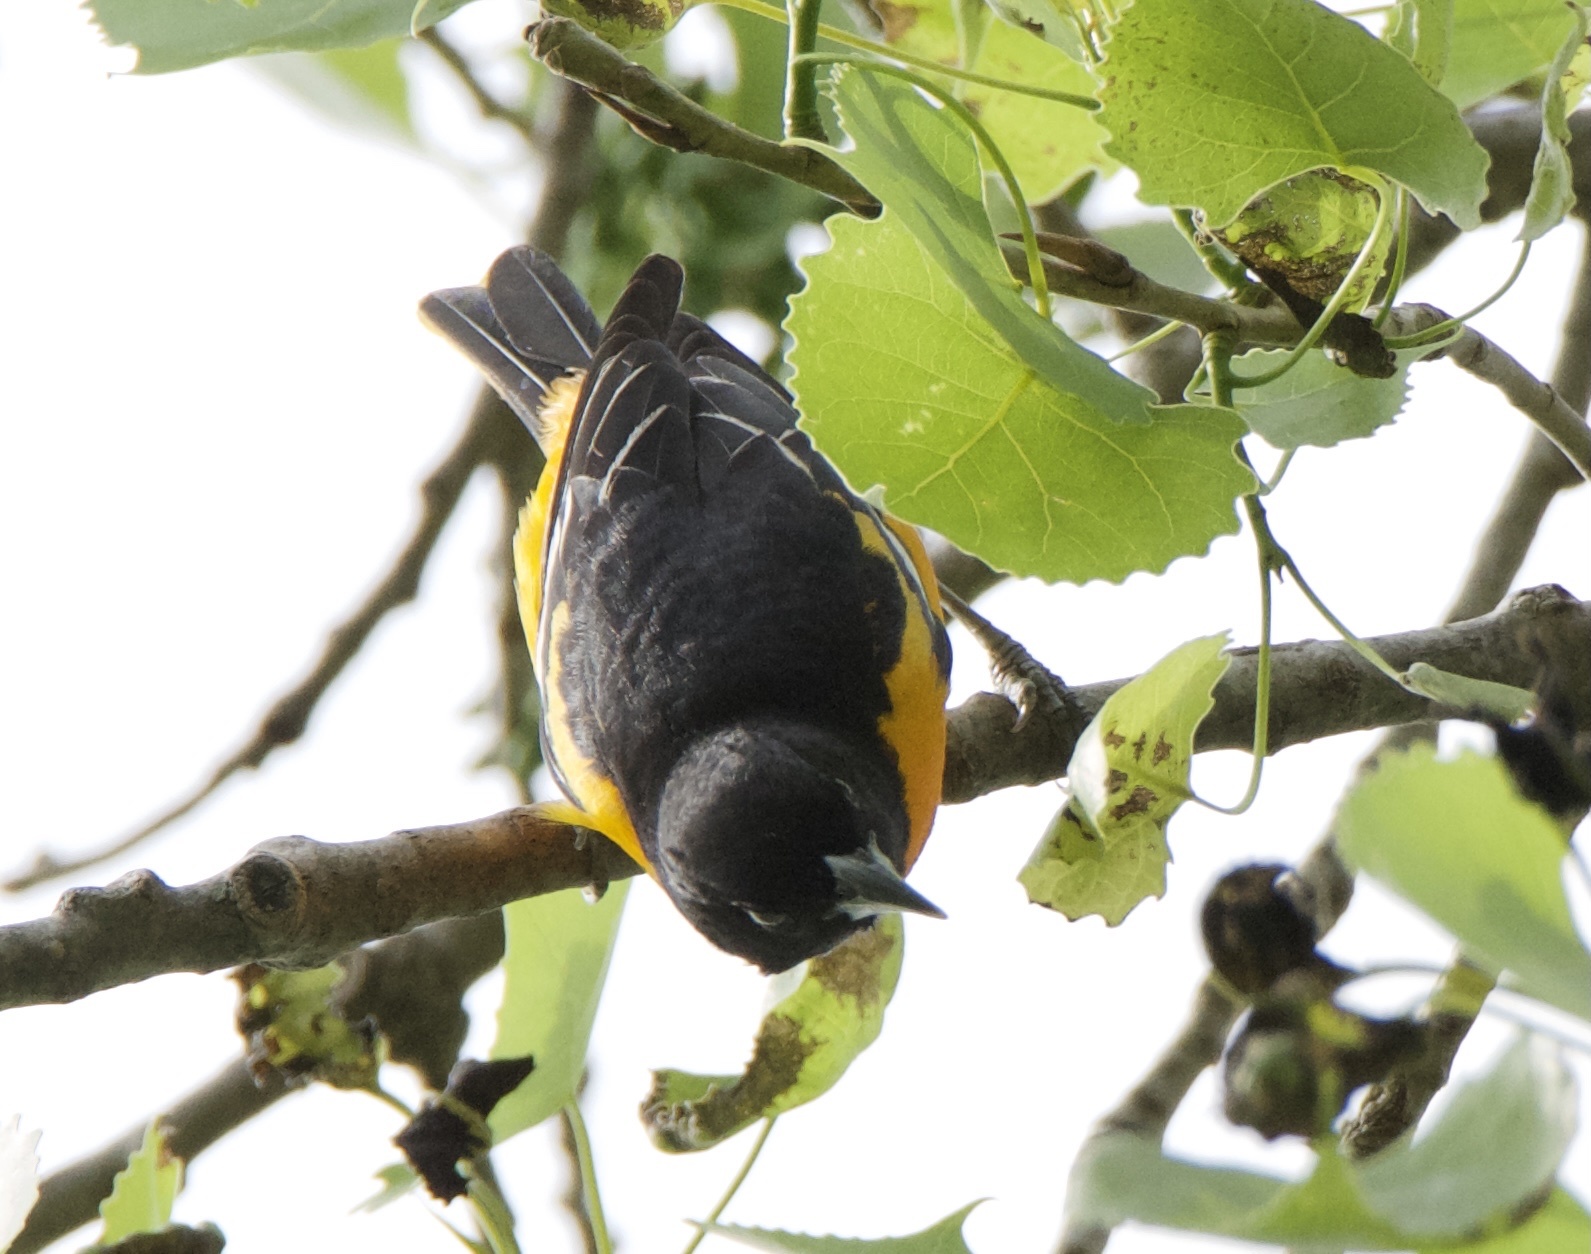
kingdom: Animalia
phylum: Chordata
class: Aves
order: Passeriformes
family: Icteridae
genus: Icterus
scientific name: Icterus galbula
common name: Baltimore oriole
